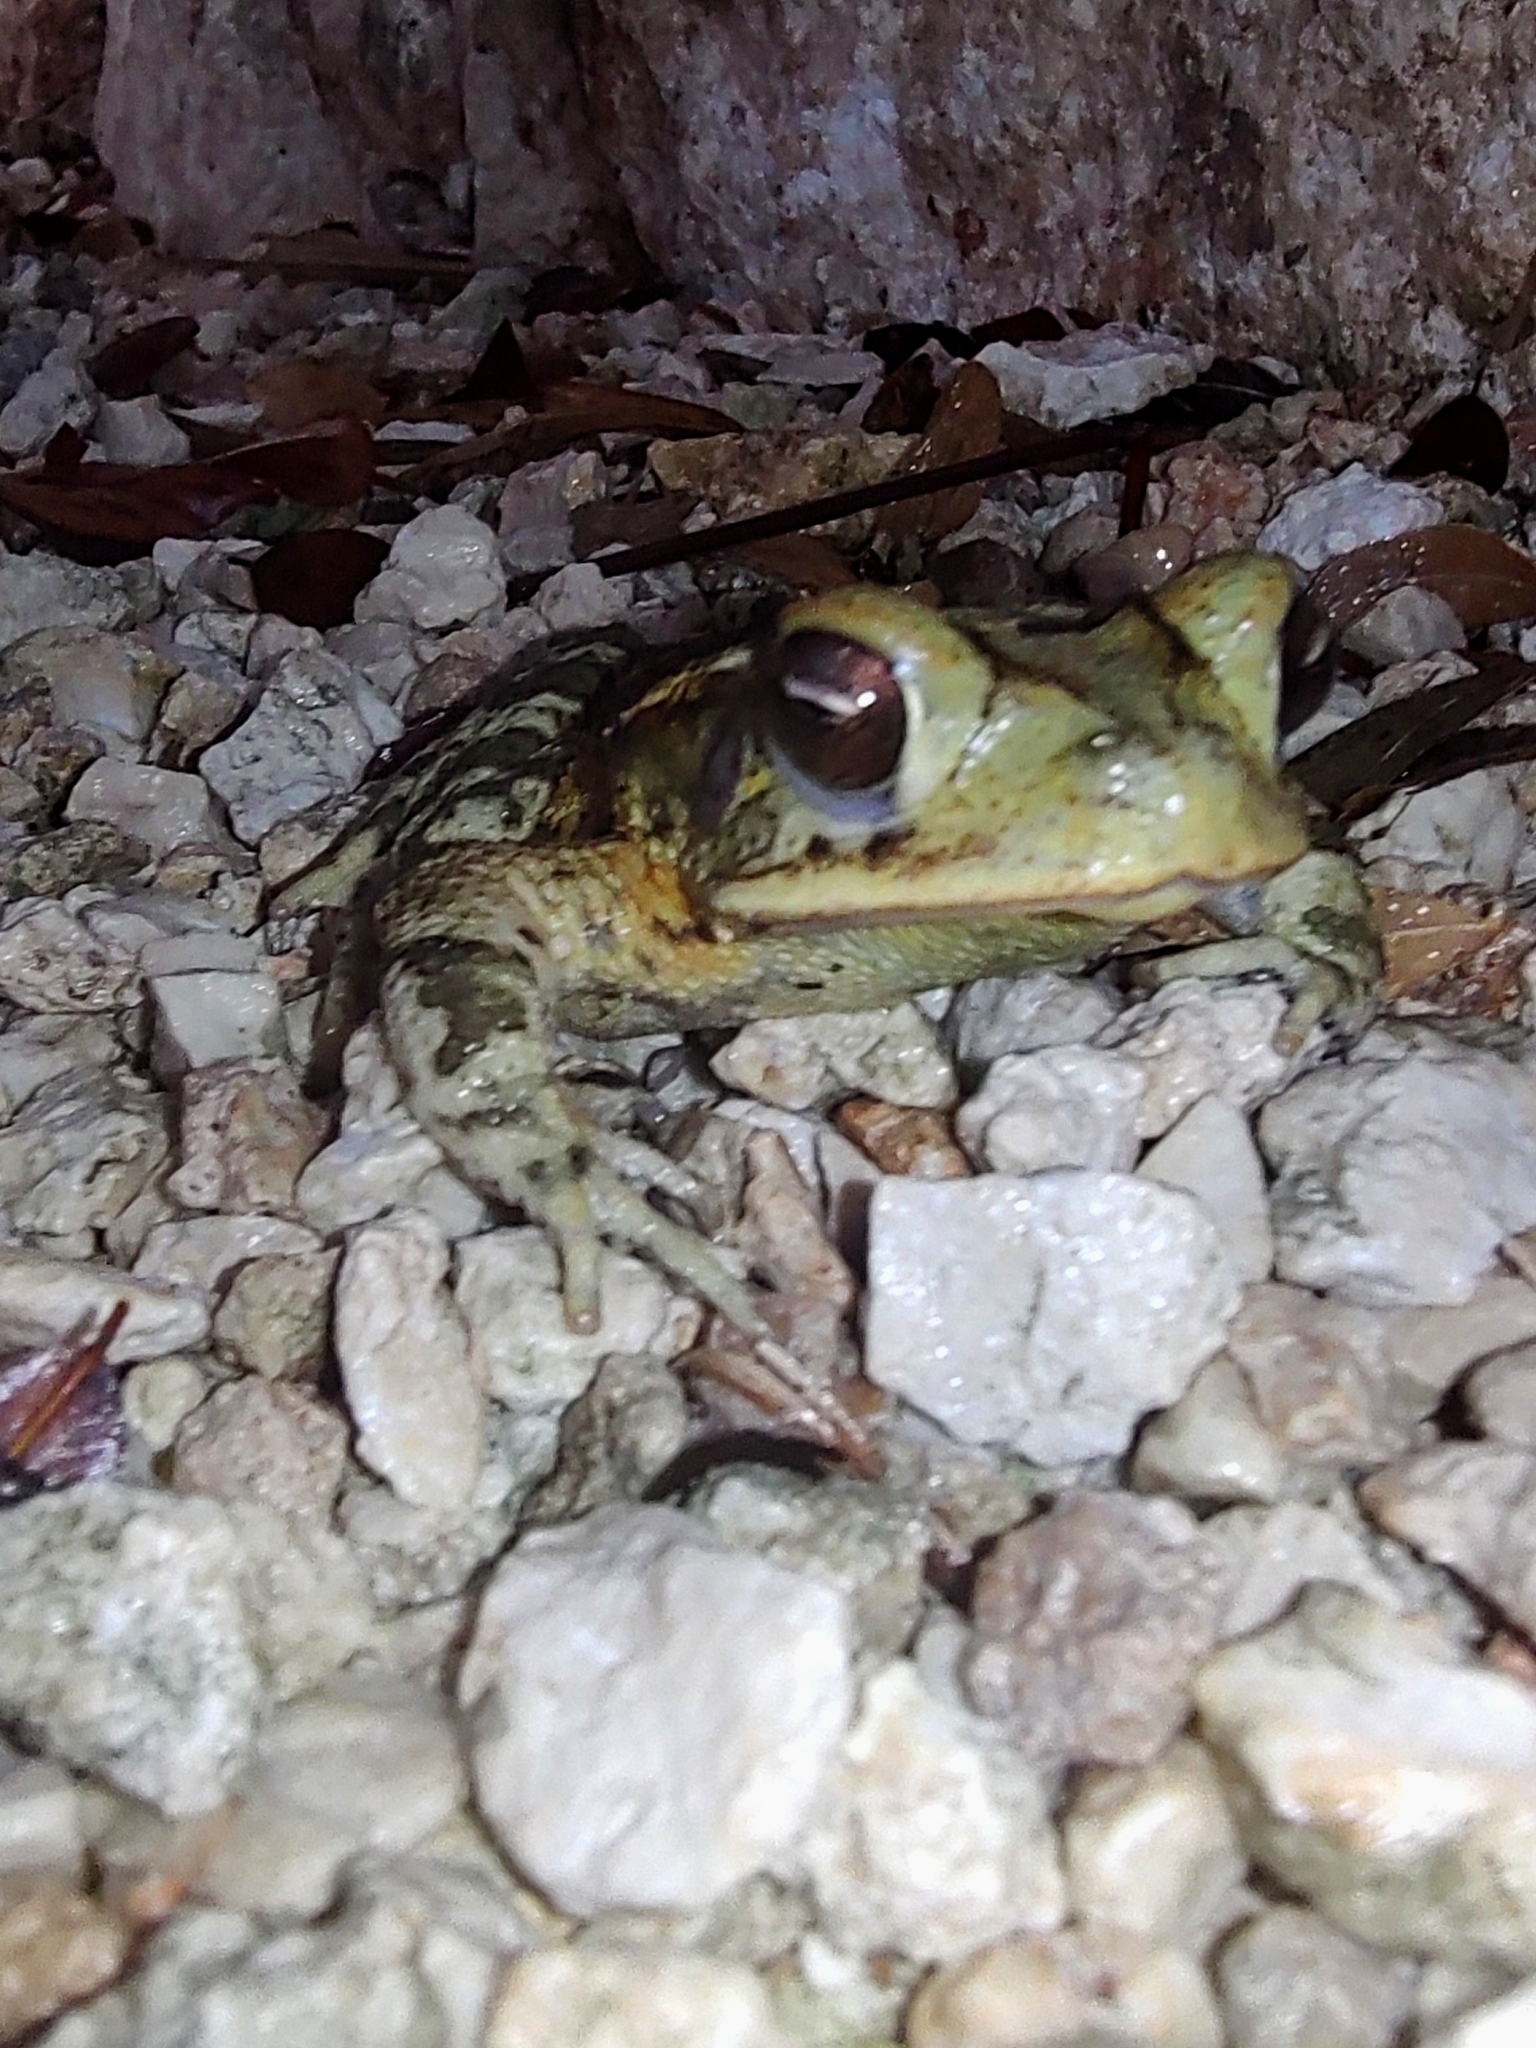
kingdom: Animalia
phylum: Chordata
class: Amphibia
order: Anura
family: Bufonidae
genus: Incilius
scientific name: Incilius valliceps
